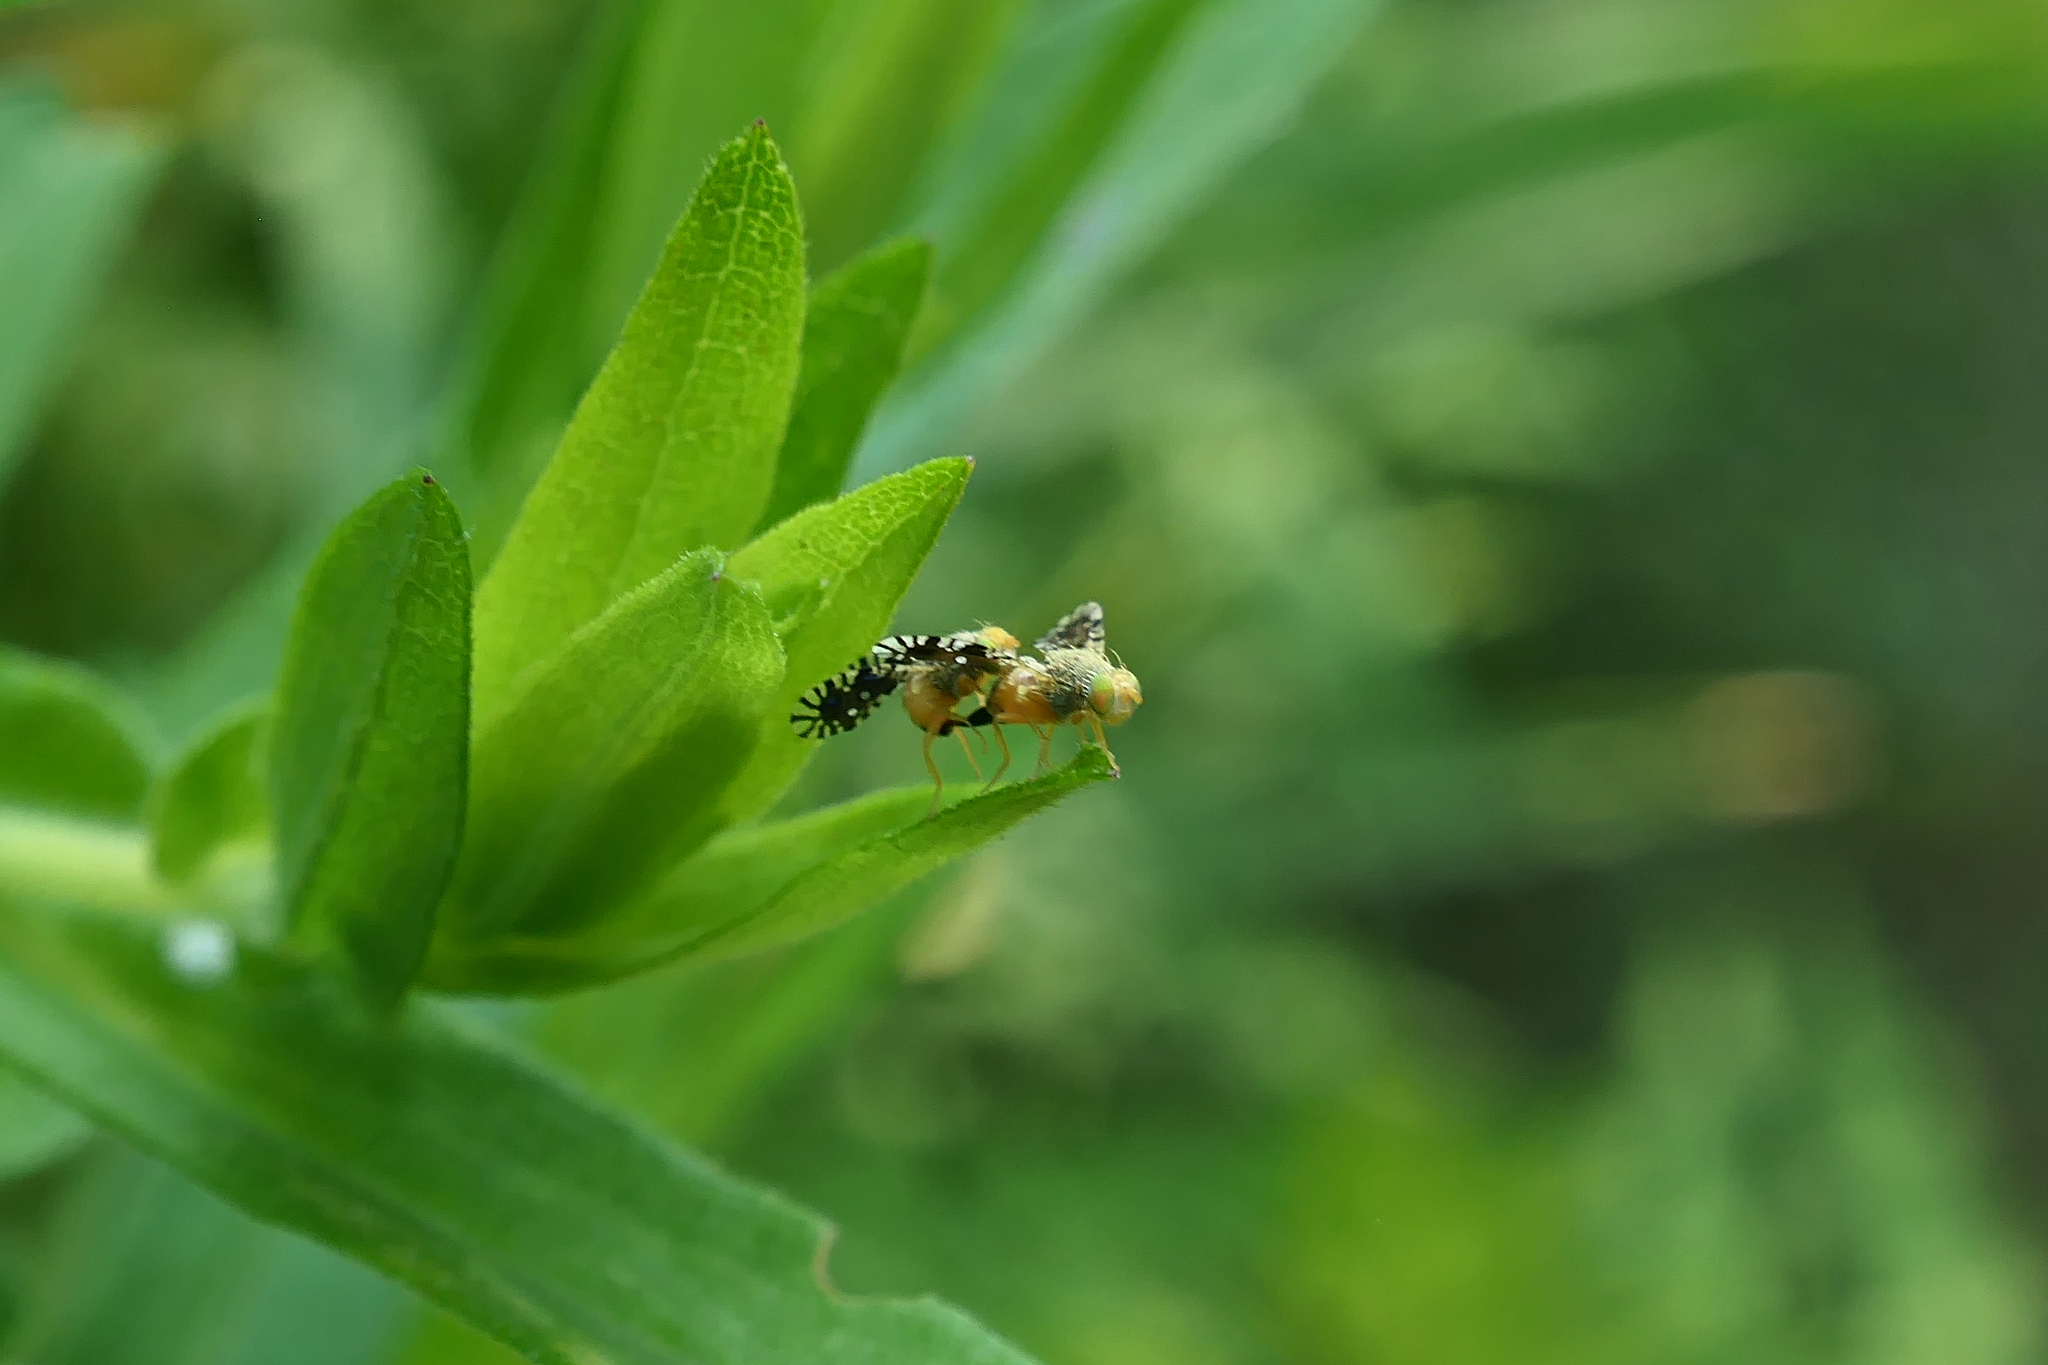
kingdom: Animalia
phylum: Arthropoda
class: Insecta
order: Diptera
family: Tephritidae
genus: Euaresta
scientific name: Euaresta bella
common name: Common ragweed fruit fly
